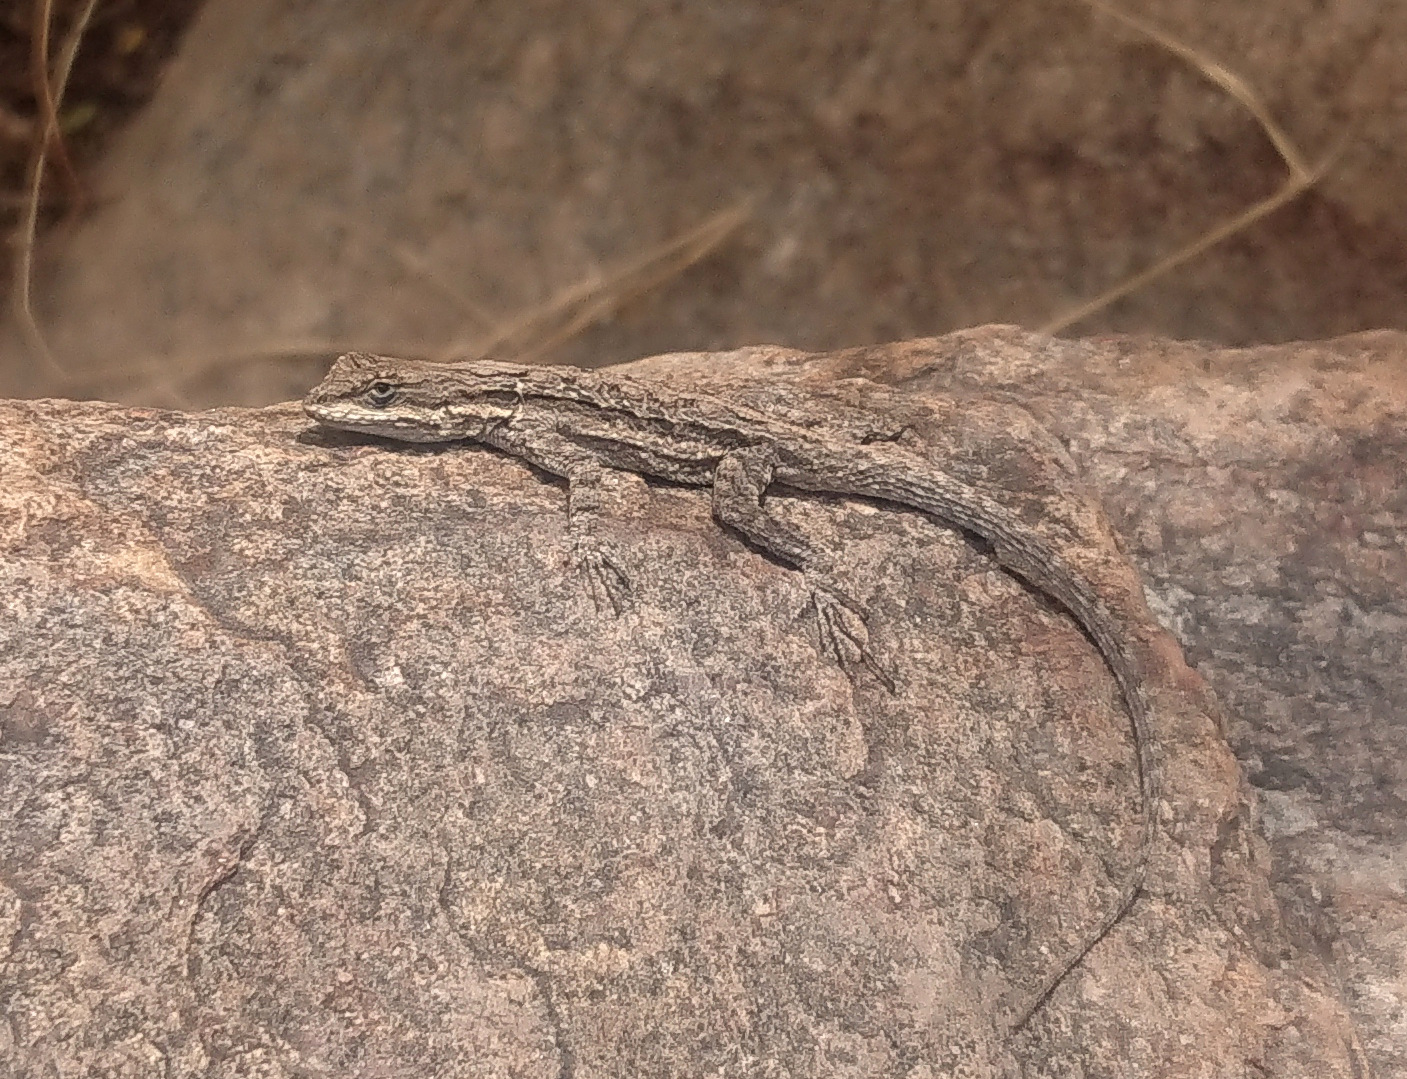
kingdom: Animalia
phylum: Chordata
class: Squamata
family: Phrynosomatidae
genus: Urosaurus
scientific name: Urosaurus ornatus
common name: Ornate tree lizard
